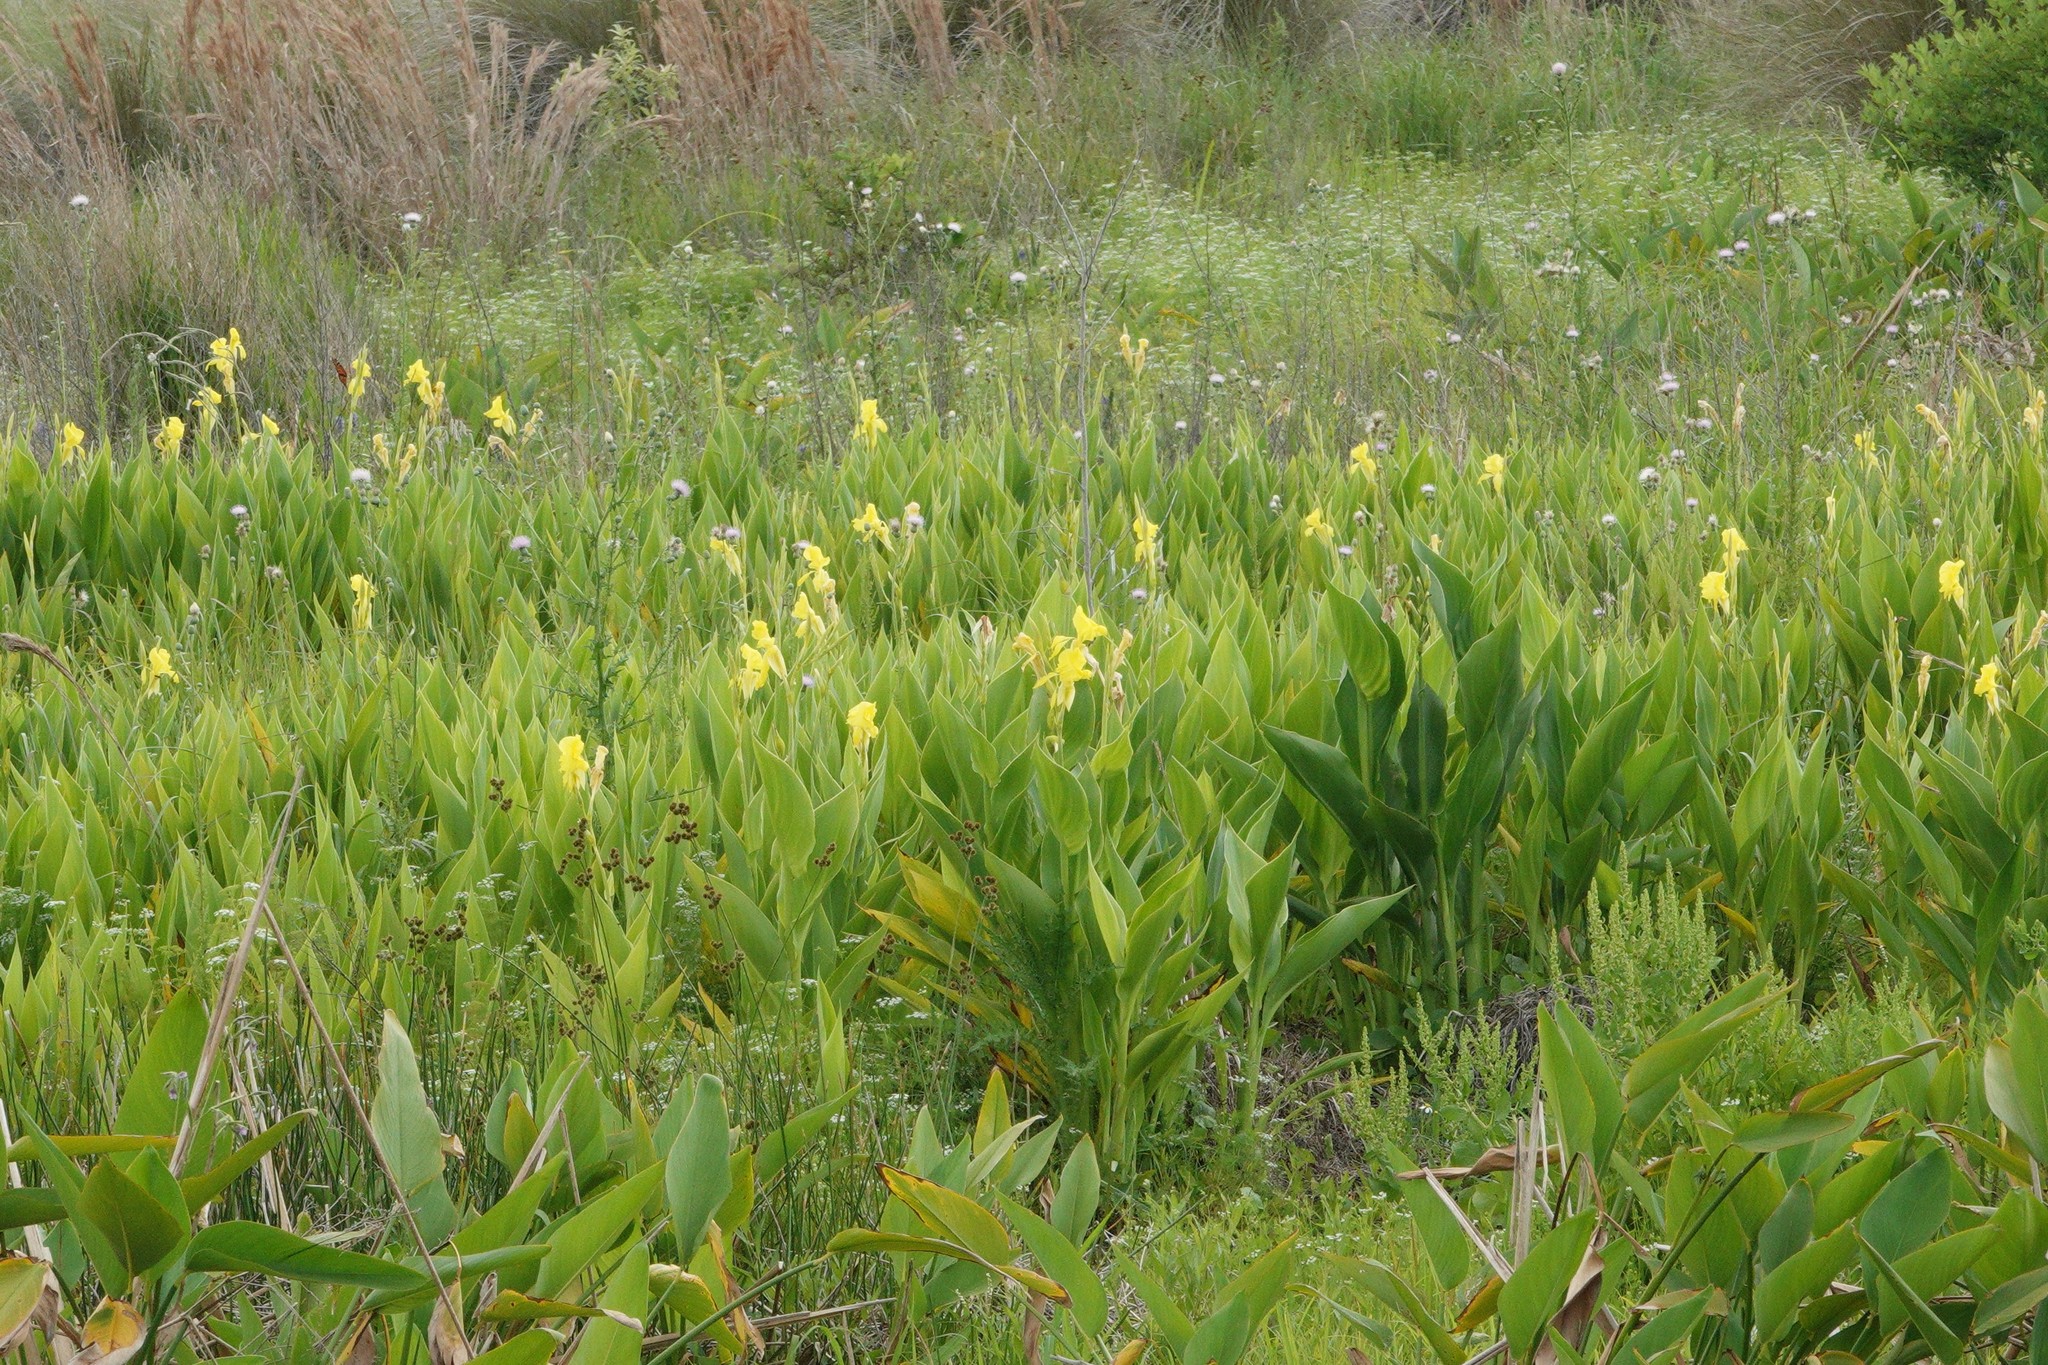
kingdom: Plantae
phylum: Tracheophyta
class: Liliopsida
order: Zingiberales
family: Cannaceae
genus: Canna
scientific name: Canna flaccida
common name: Bandana-of-the-everglades
